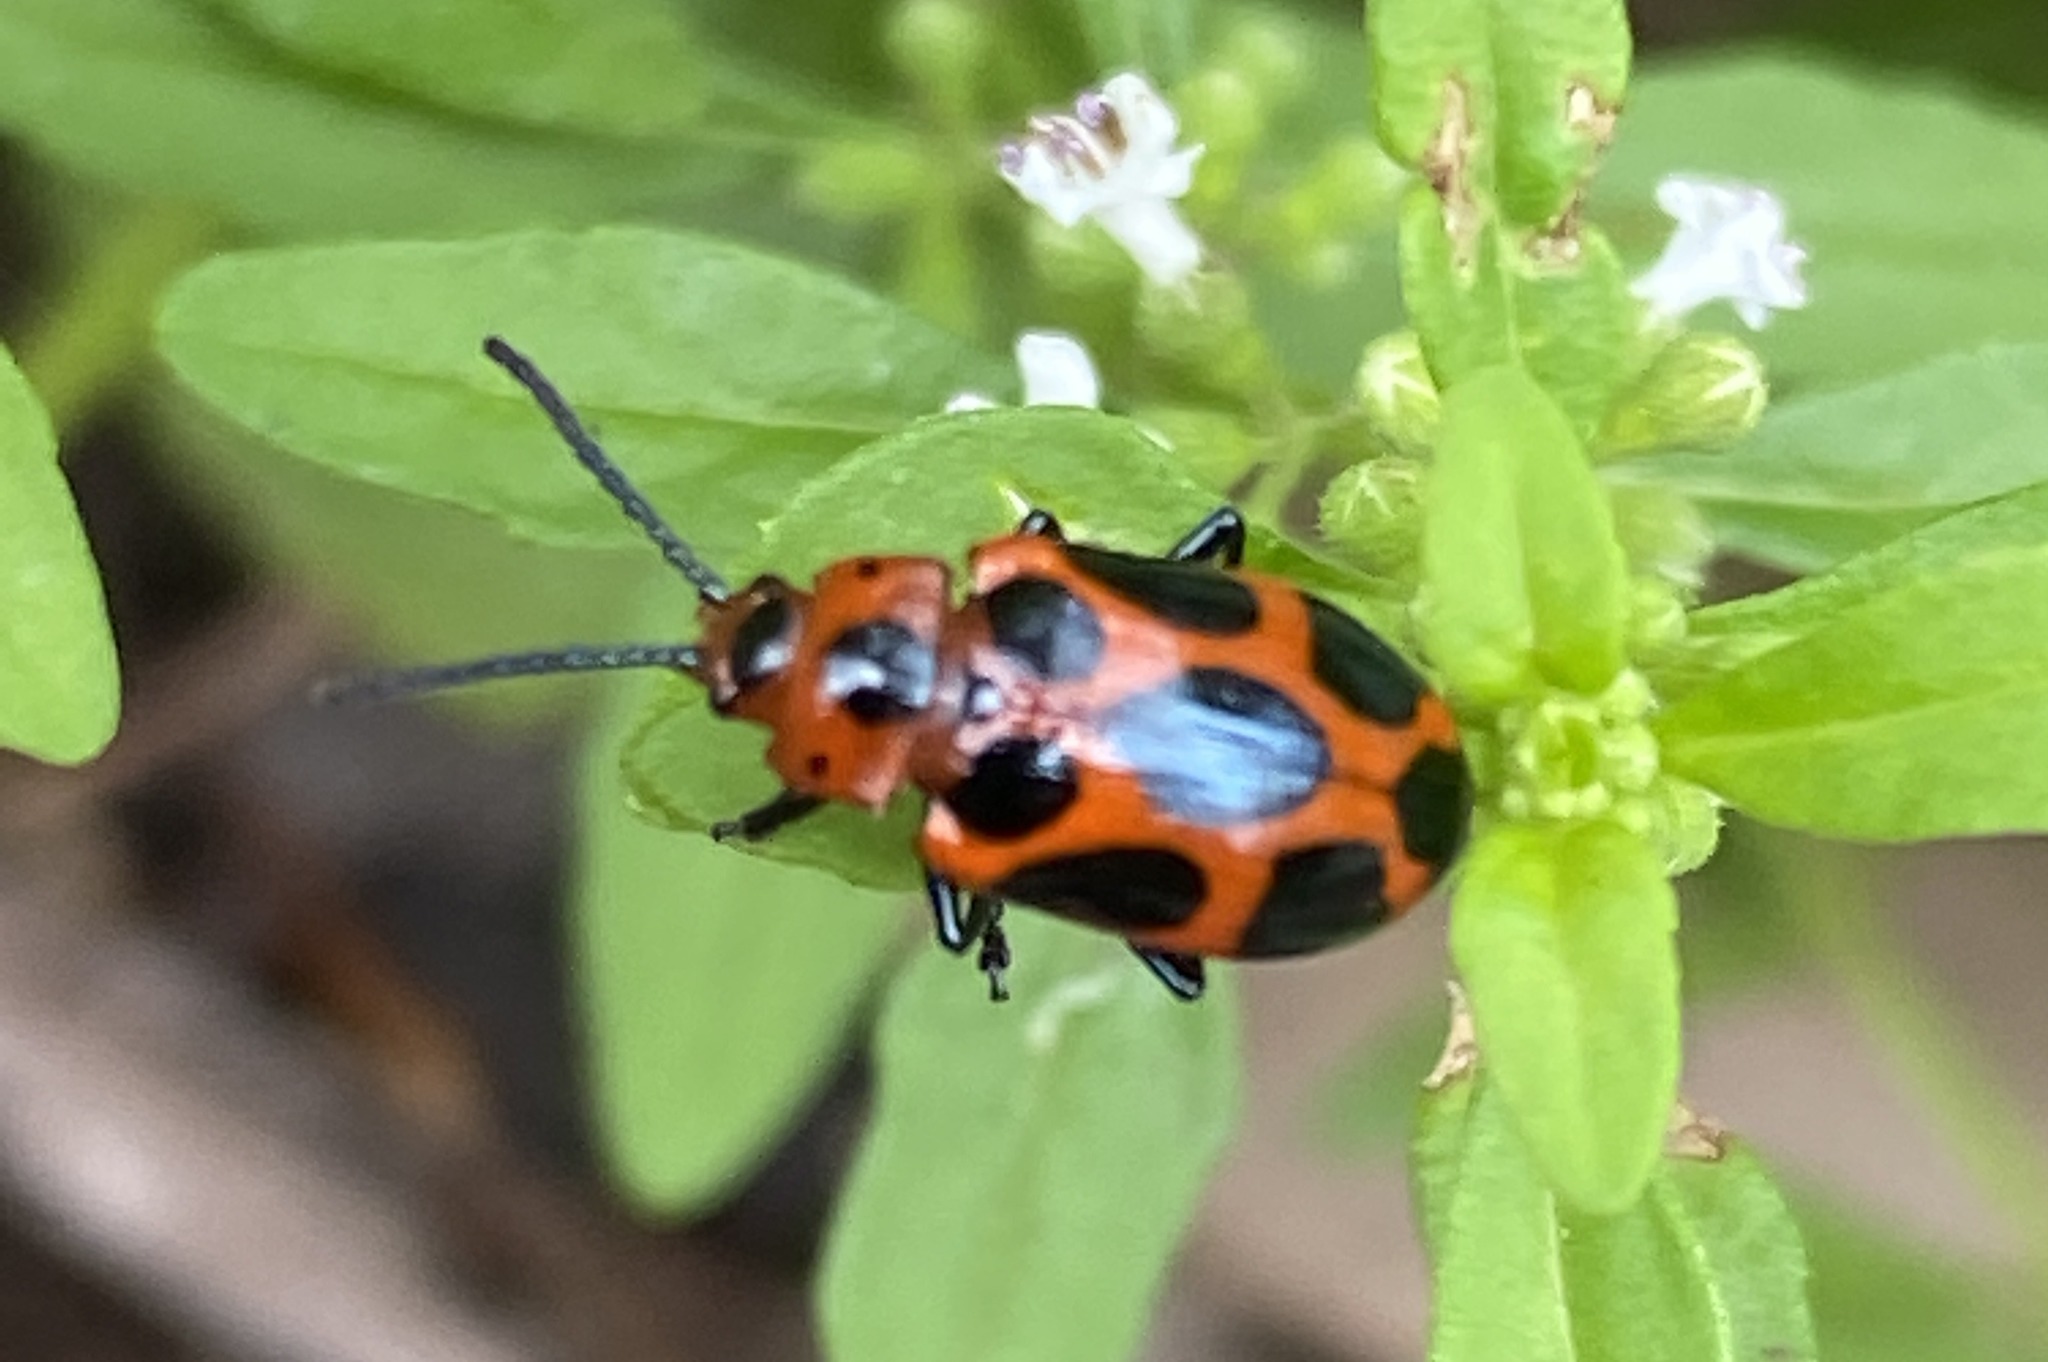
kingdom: Animalia
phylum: Arthropoda
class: Insecta
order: Coleoptera
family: Chrysomelidae
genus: Phyllocharis
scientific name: Phyllocharis
